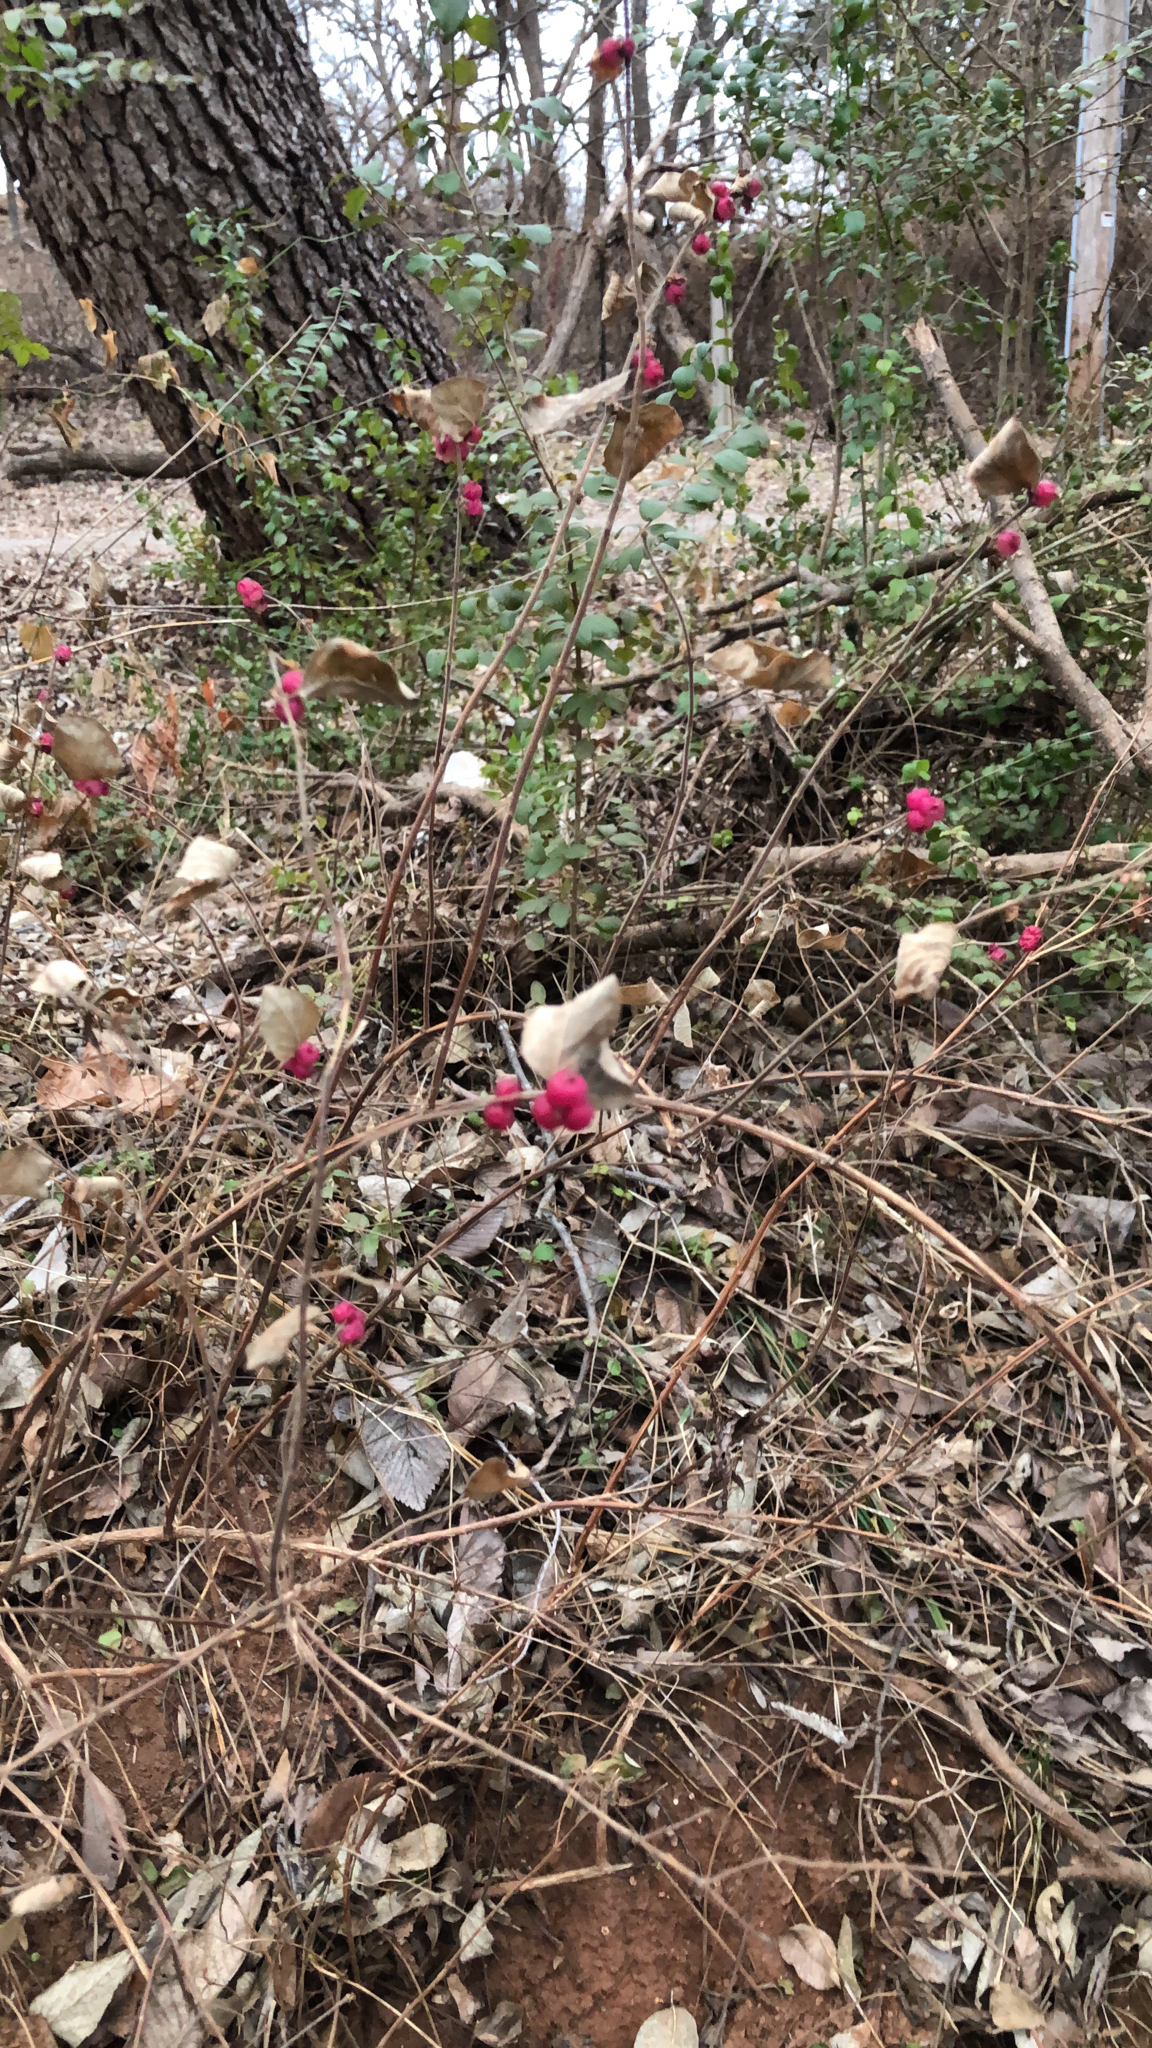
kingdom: Plantae
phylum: Tracheophyta
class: Magnoliopsida
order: Dipsacales
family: Caprifoliaceae
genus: Symphoricarpos
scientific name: Symphoricarpos orbiculatus
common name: Coralberry
